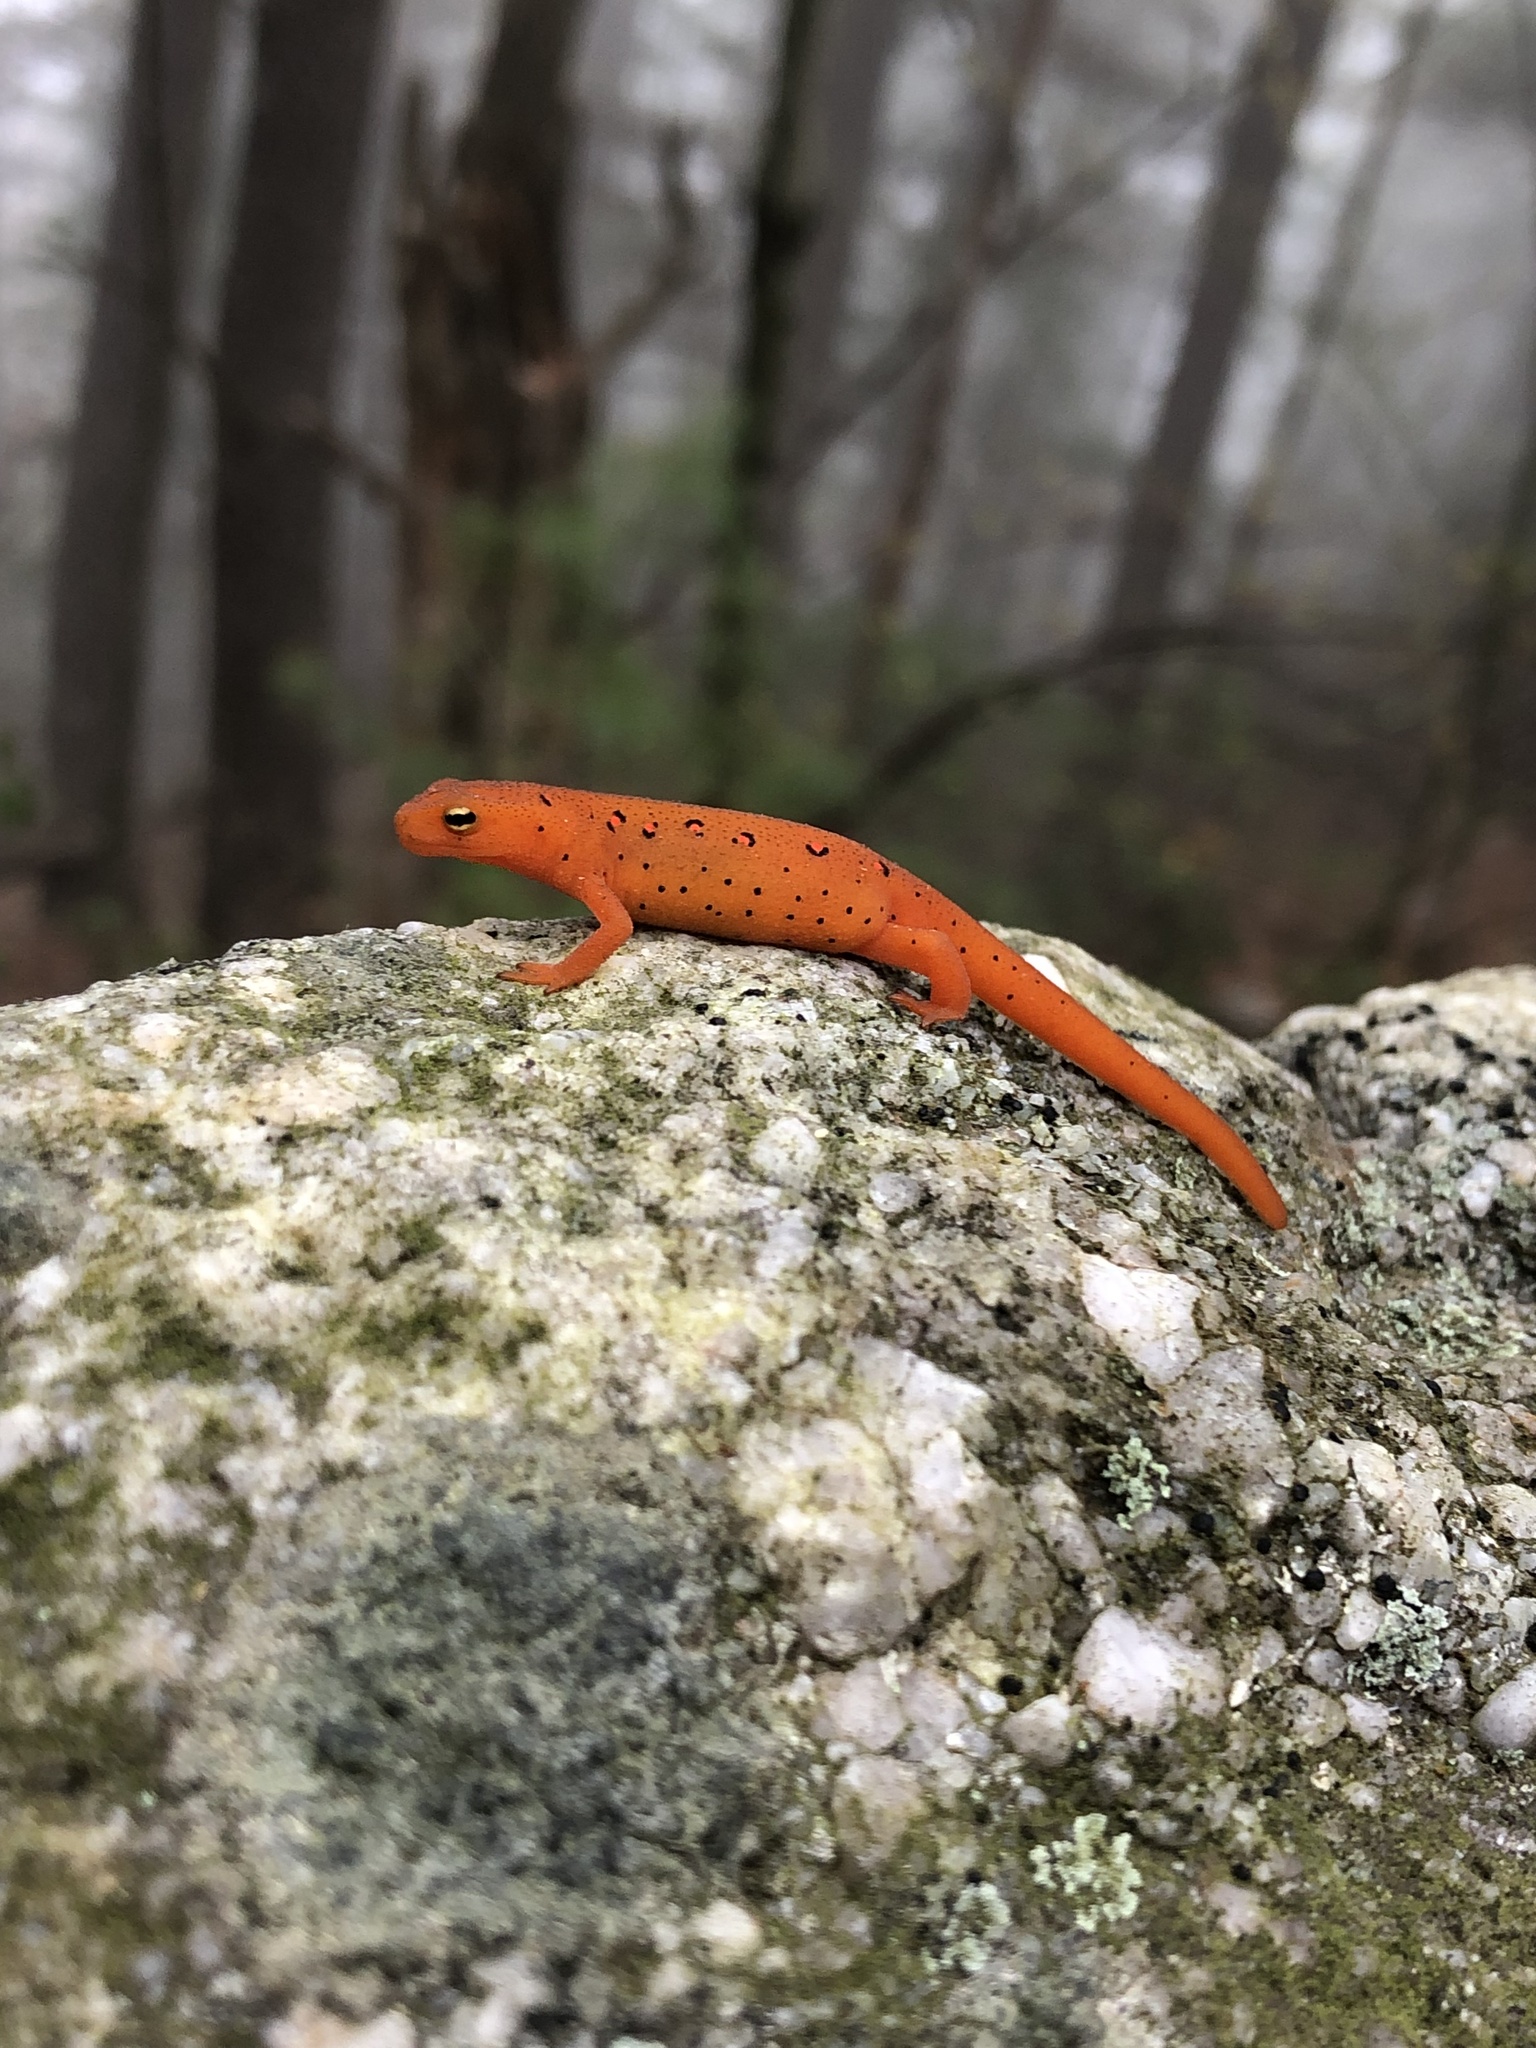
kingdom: Animalia
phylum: Chordata
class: Amphibia
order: Caudata
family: Salamandridae
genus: Notophthalmus
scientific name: Notophthalmus viridescens
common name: Eastern newt
